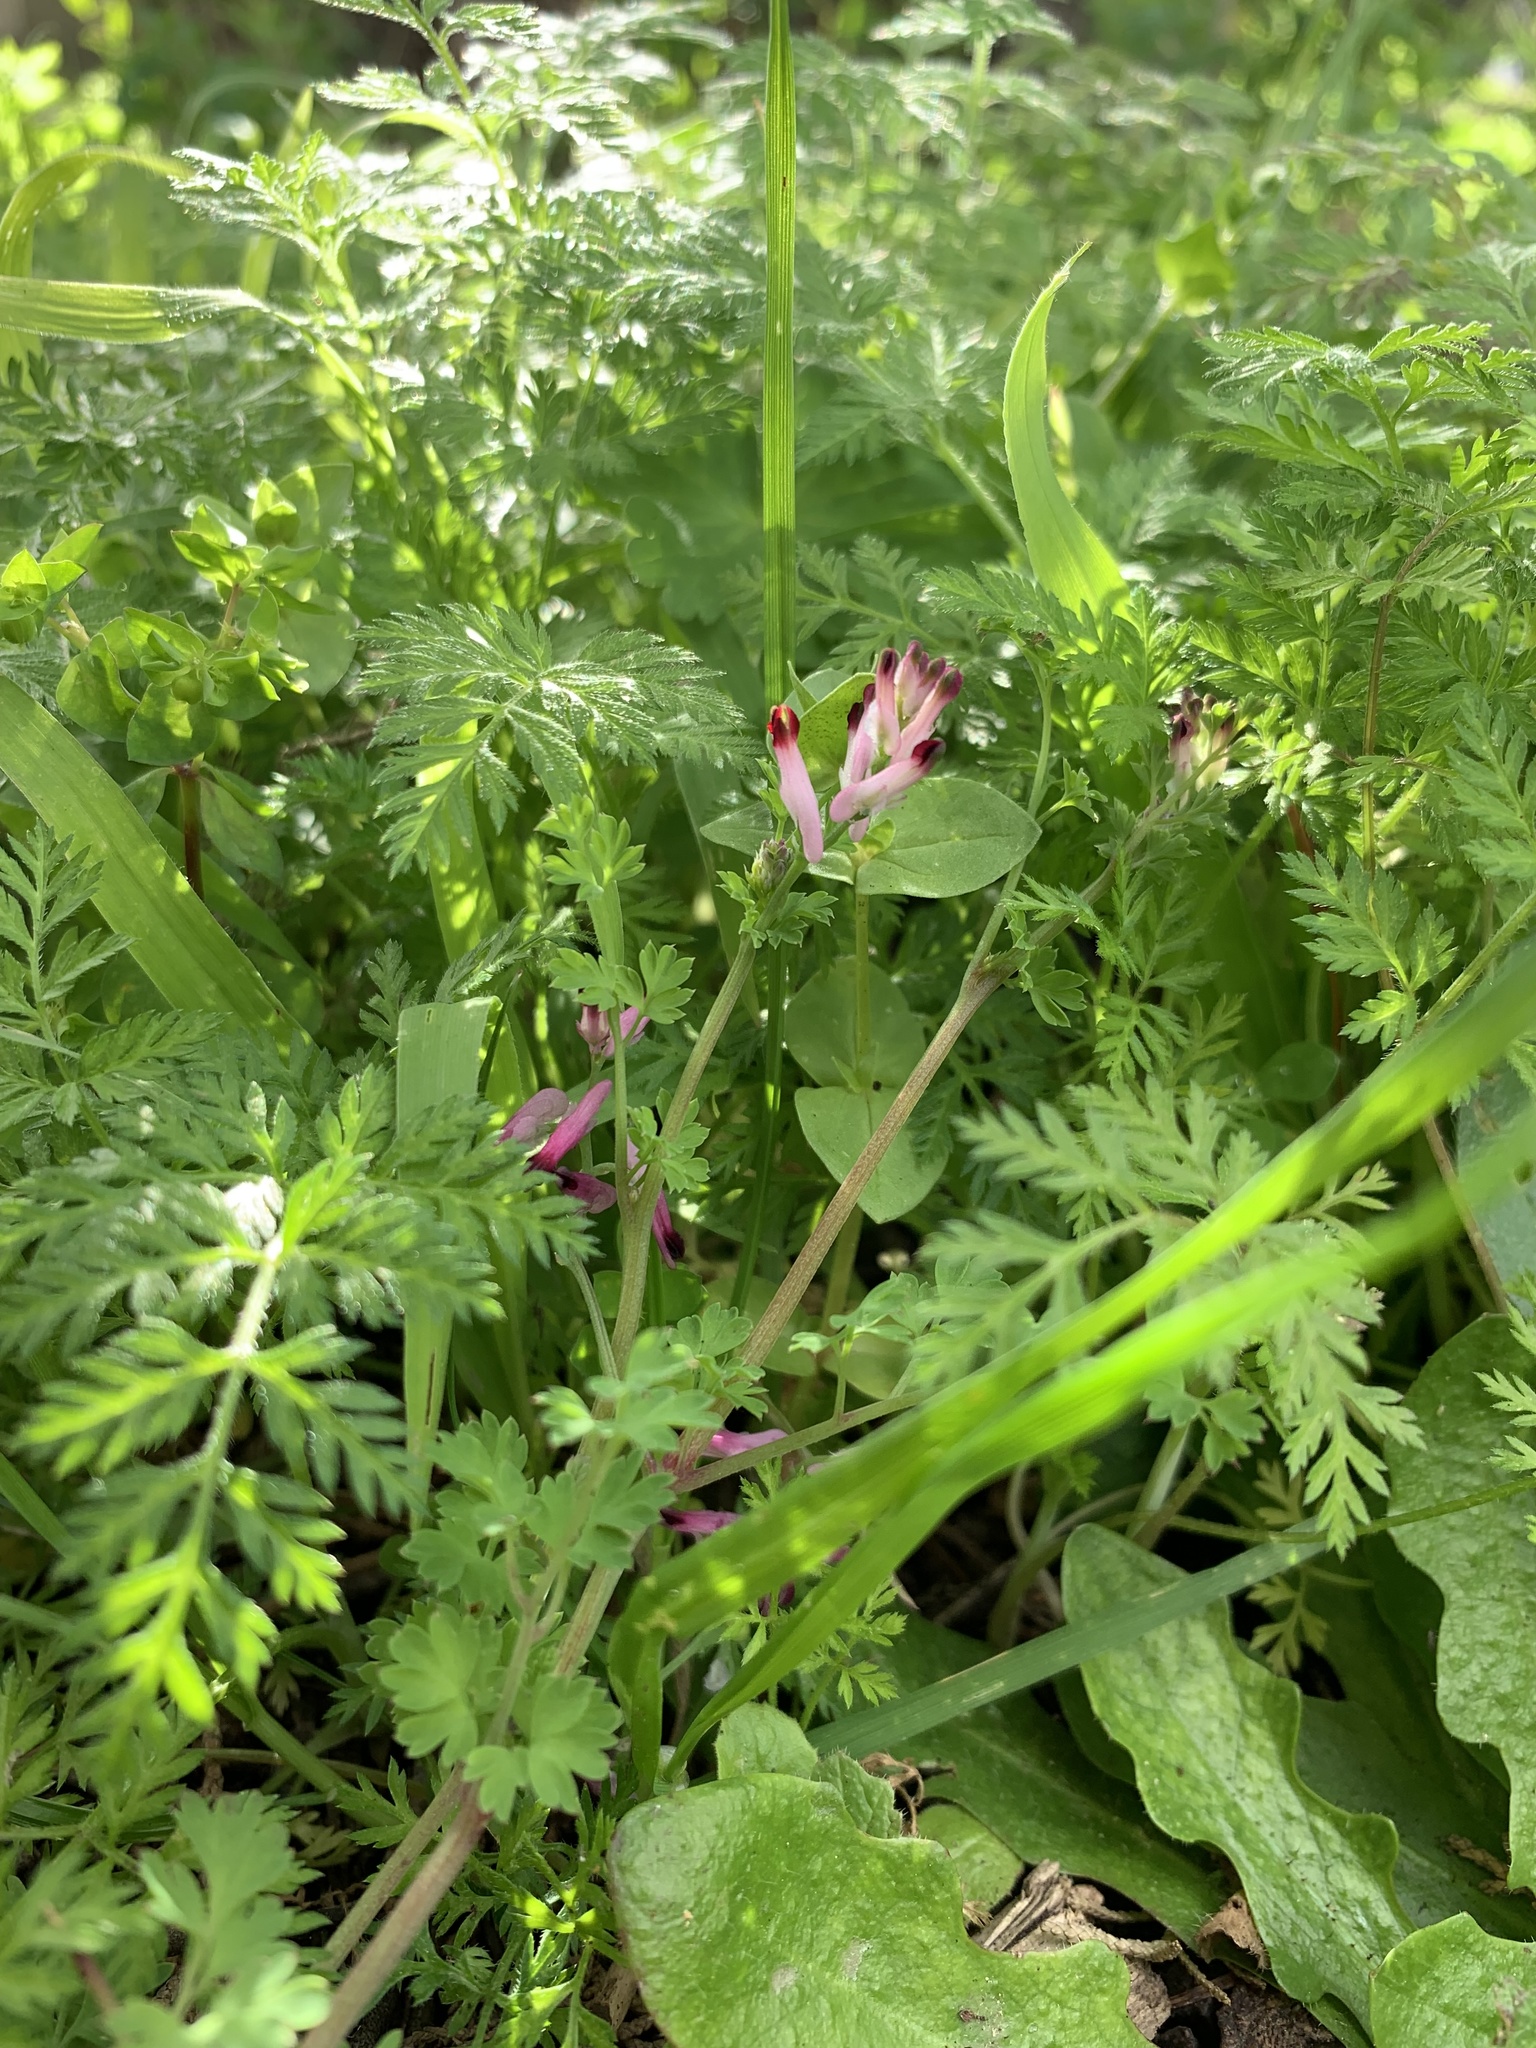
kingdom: Plantae
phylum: Tracheophyta
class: Magnoliopsida
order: Ranunculales
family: Papaveraceae
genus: Fumaria
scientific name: Fumaria muralis
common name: Common ramping-fumitory
